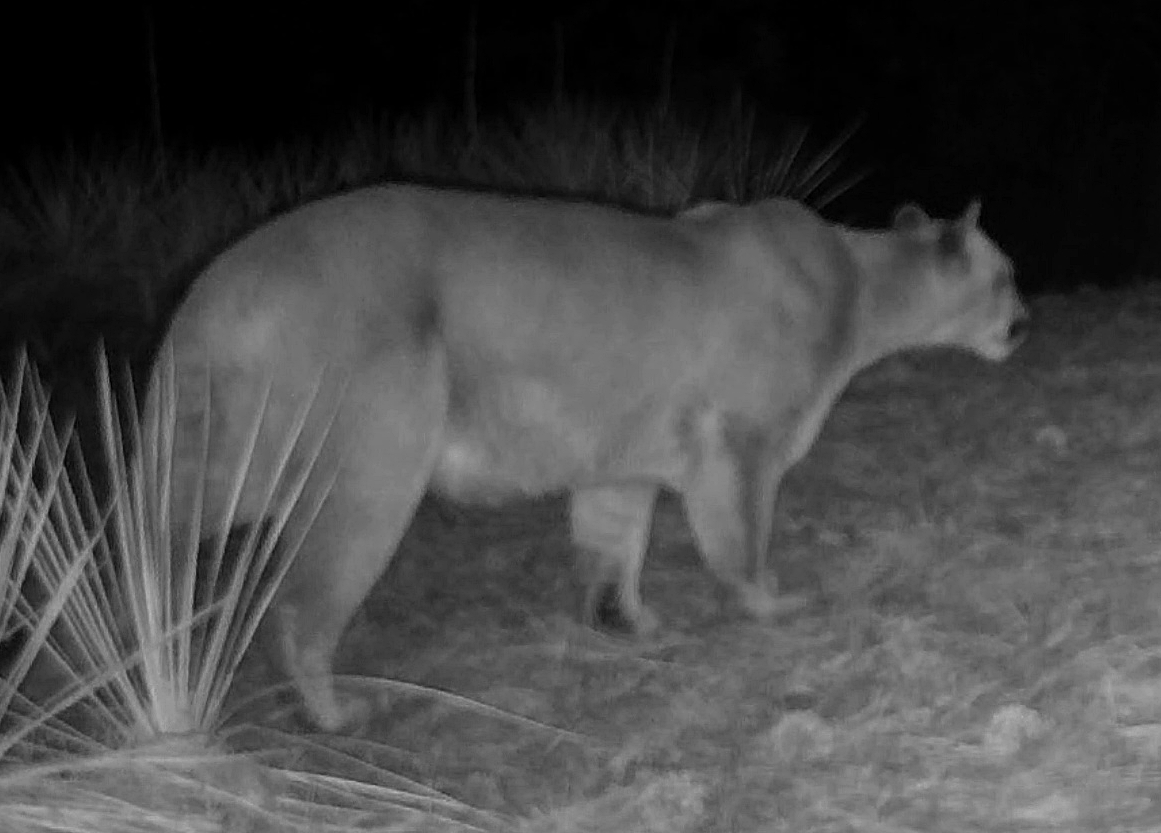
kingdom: Animalia
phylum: Chordata
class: Mammalia
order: Carnivora
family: Felidae
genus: Puma
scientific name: Puma concolor
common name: Puma
